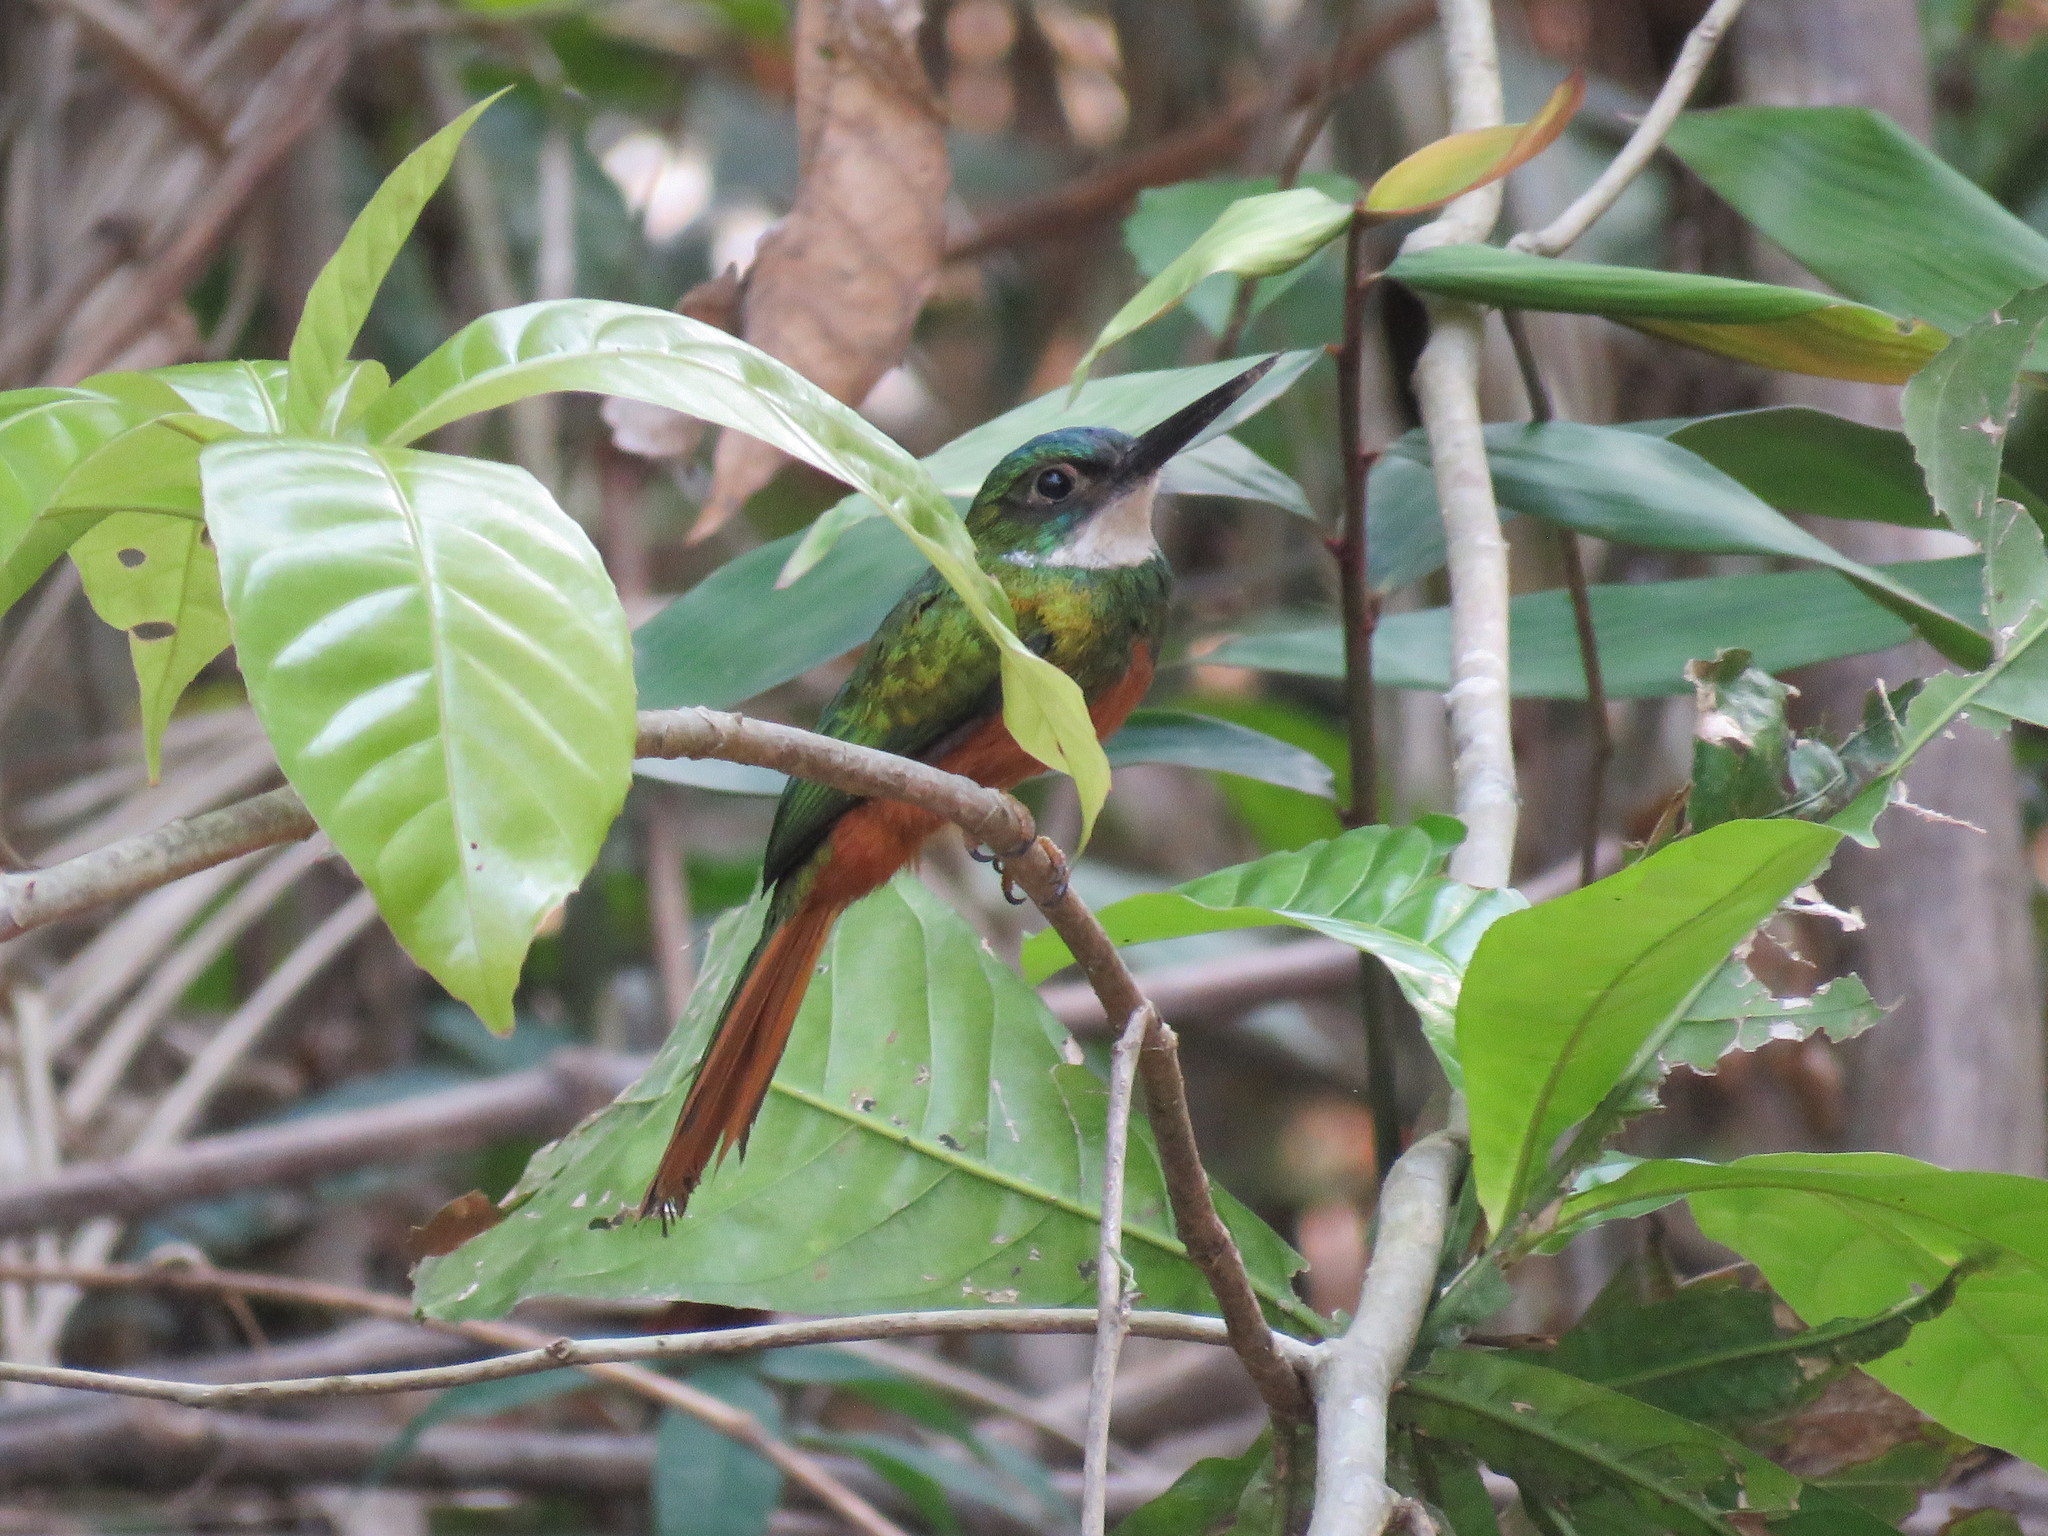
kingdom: Animalia
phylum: Chordata
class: Aves
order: Piciformes
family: Galbulidae
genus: Galbula
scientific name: Galbula ruficauda
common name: Rufous-tailed jacamar
